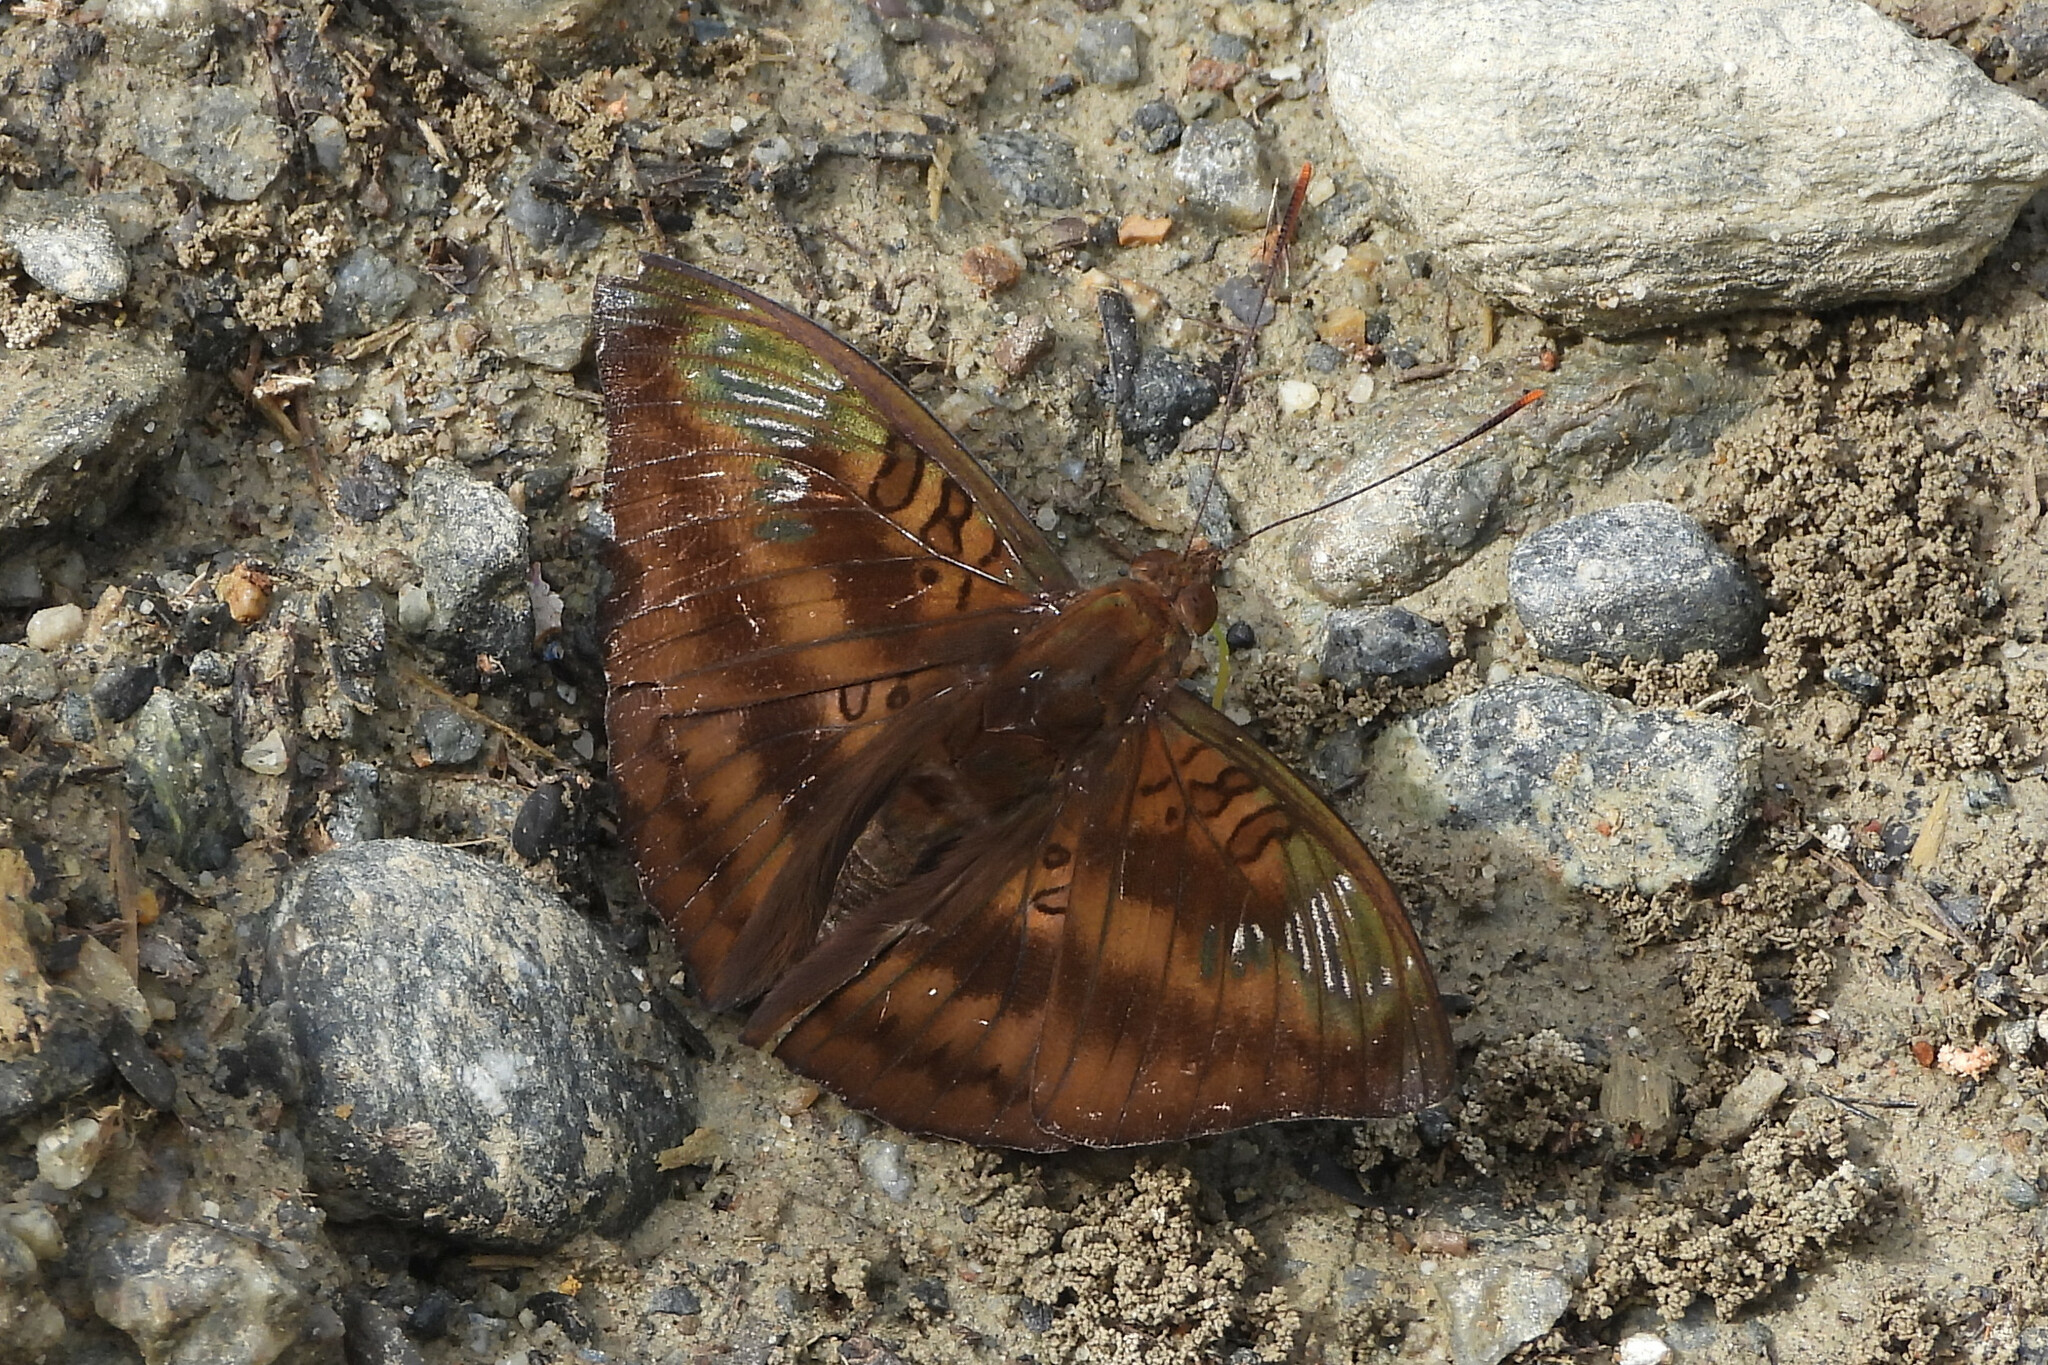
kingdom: Animalia
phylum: Arthropoda
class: Insecta
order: Lepidoptera
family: Nymphalidae
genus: Euthalia
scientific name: Euthalia alpheda
